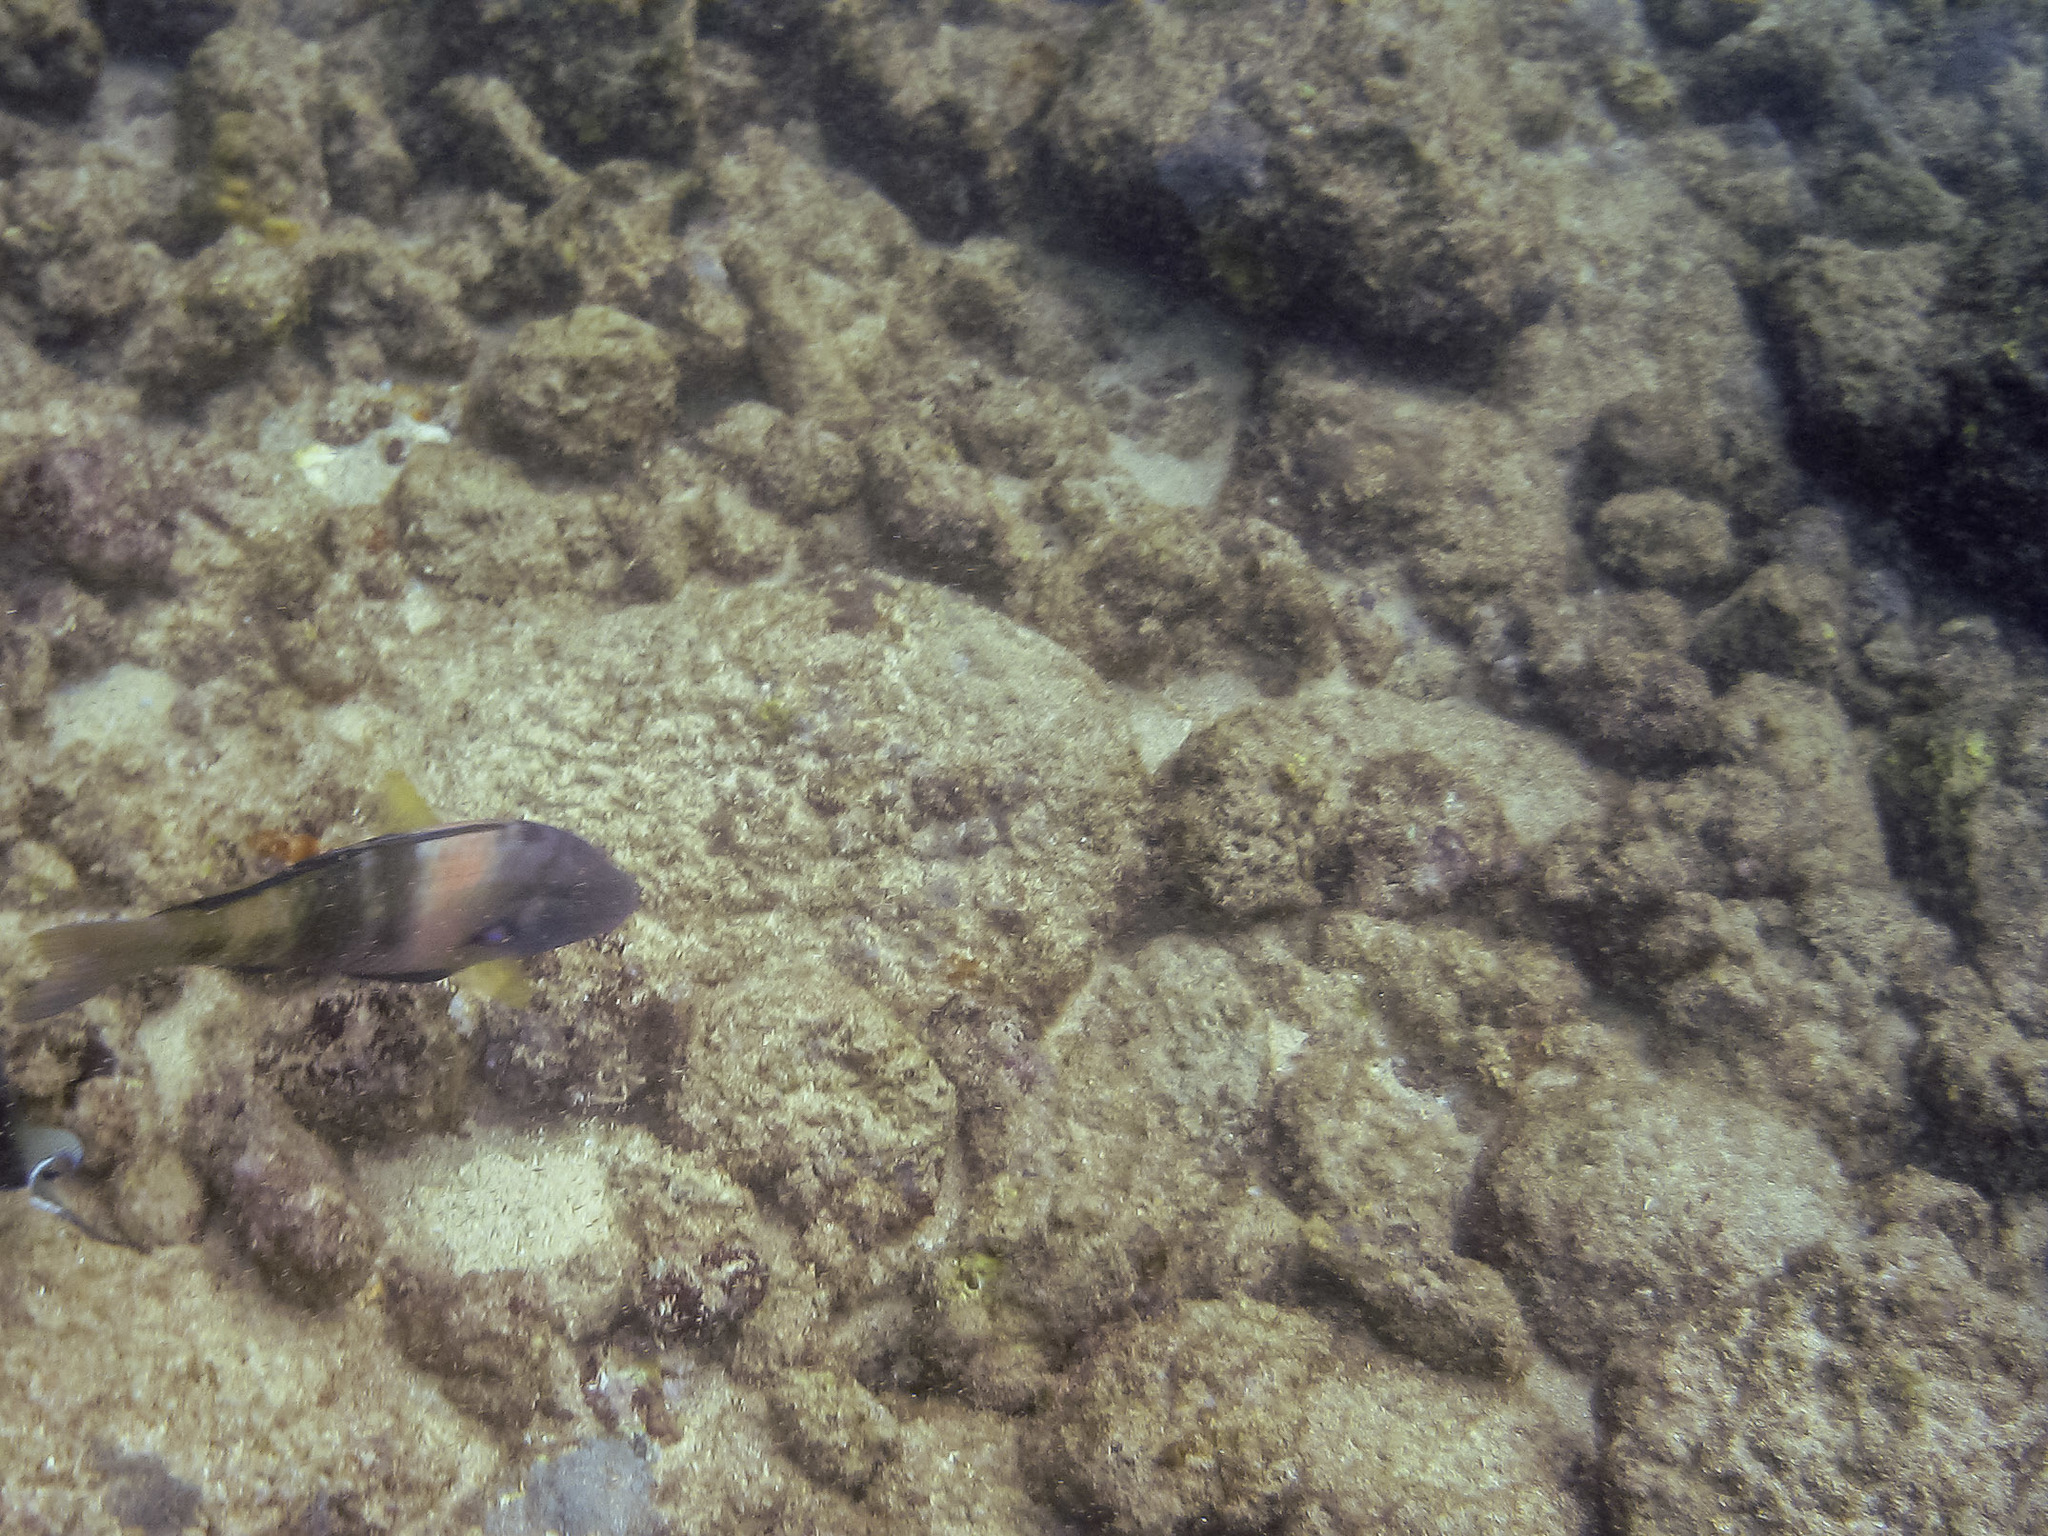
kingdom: Animalia
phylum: Chordata
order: Perciformes
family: Mullidae
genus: Parupeneus
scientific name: Parupeneus multifasciatus
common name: Manybar goatfish
